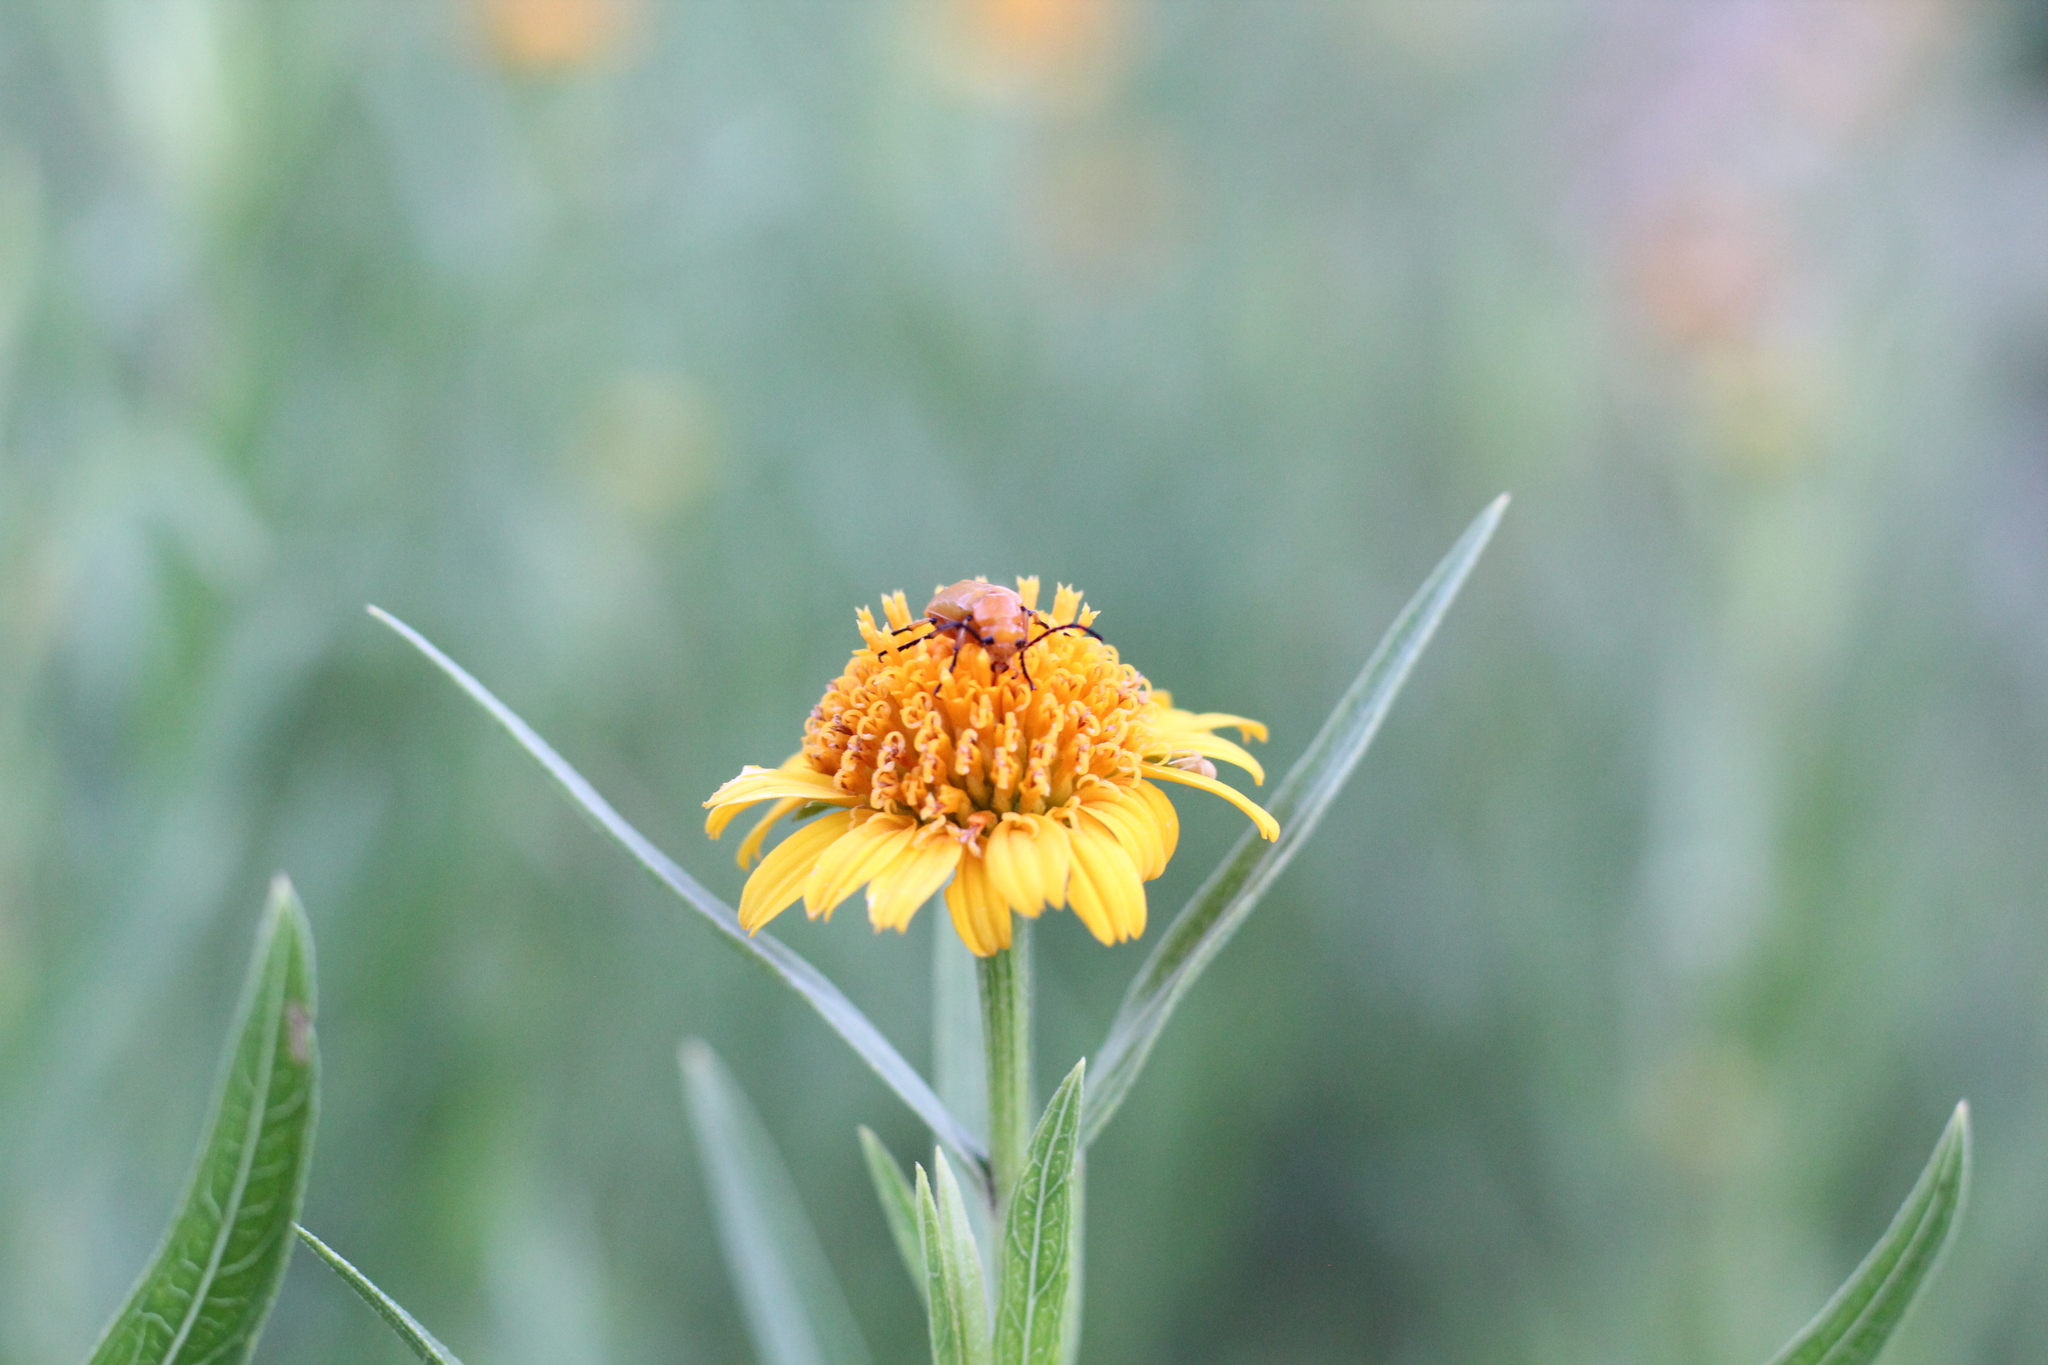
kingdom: Animalia
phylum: Arthropoda
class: Insecta
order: Coleoptera
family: Meloidae
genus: Nemognatha
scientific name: Nemognatha
